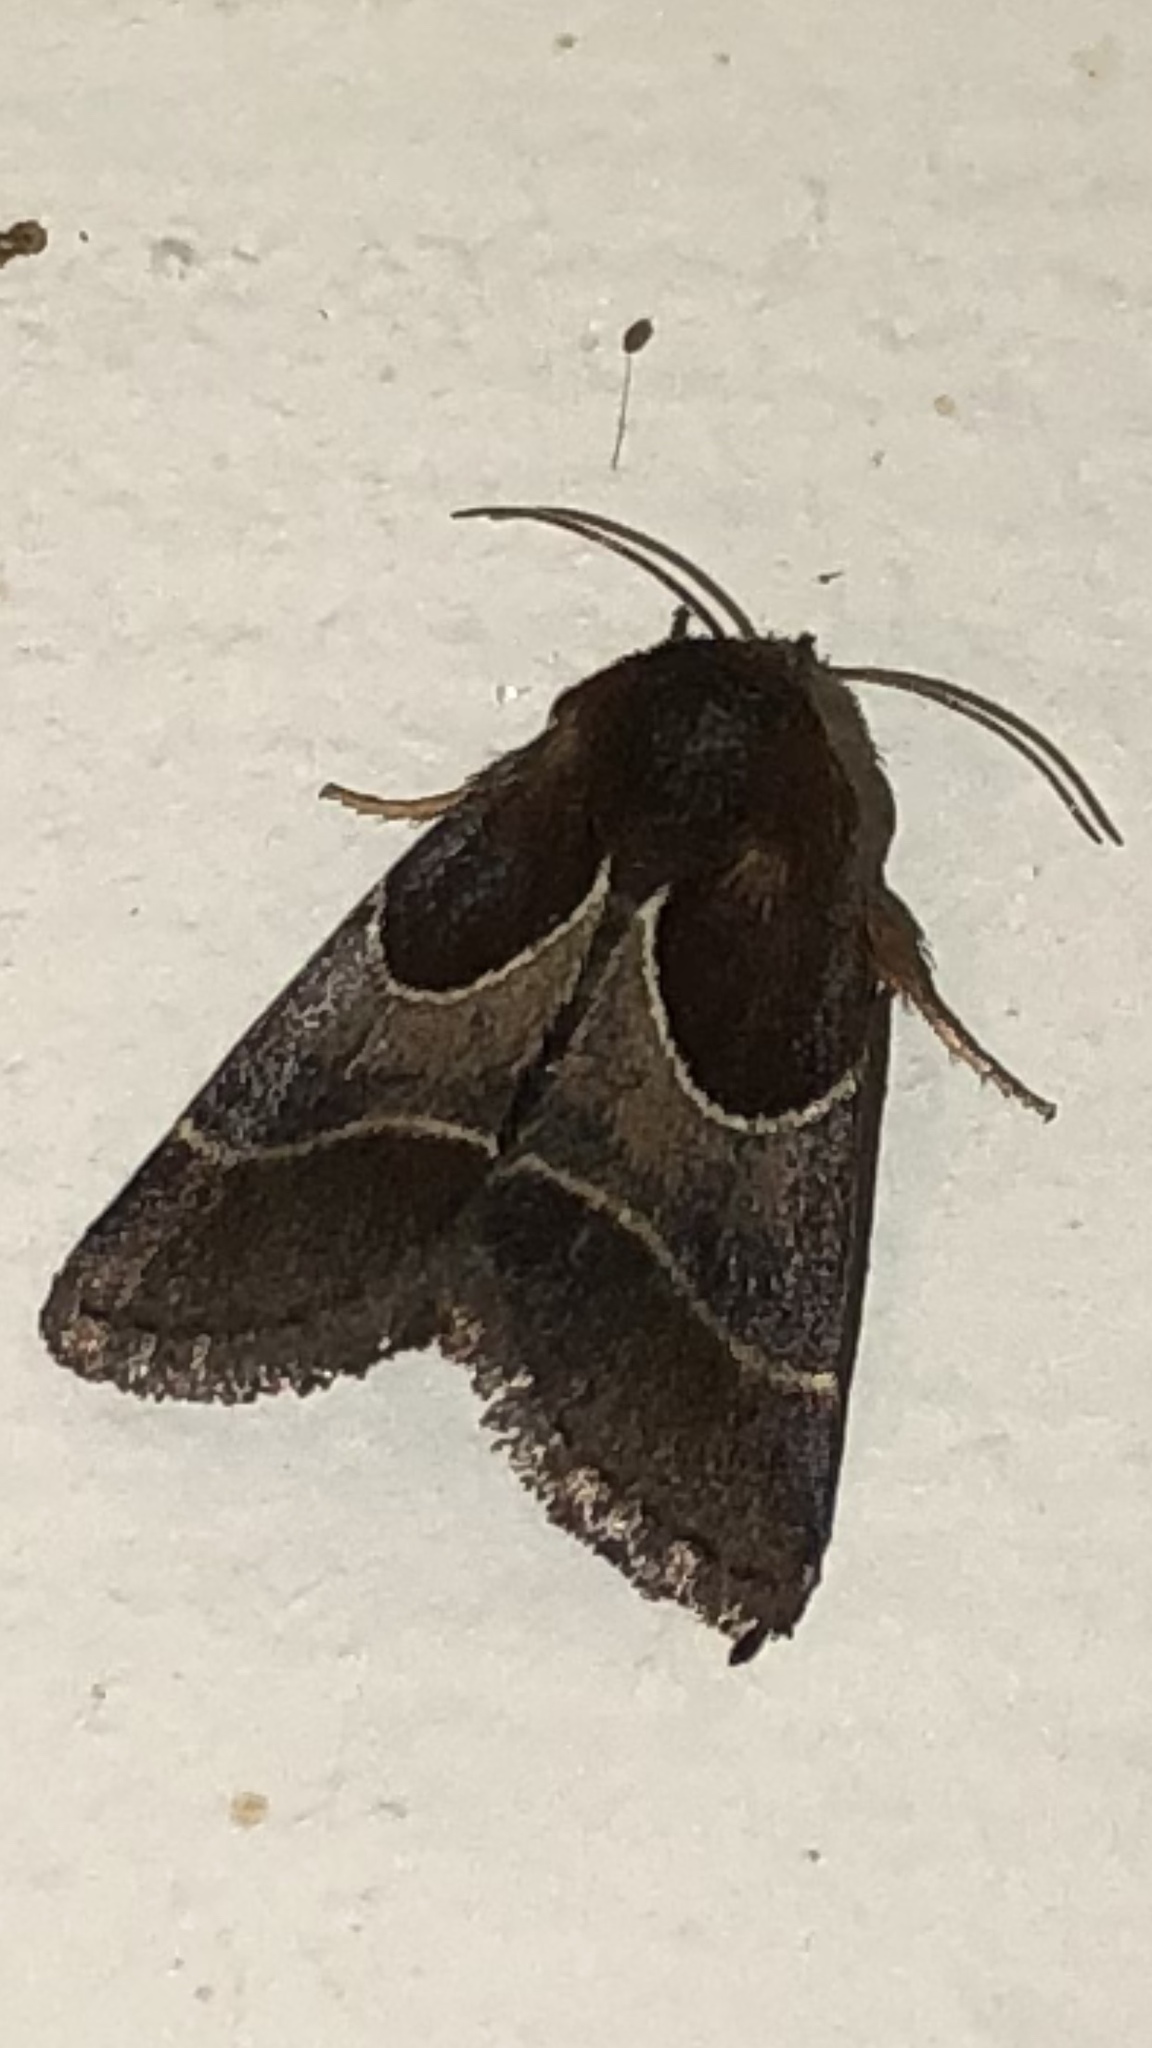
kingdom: Animalia
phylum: Arthropoda
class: Insecta
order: Lepidoptera
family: Noctuidae
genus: Schinia
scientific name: Schinia arcigera
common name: Arcigera flower moth
